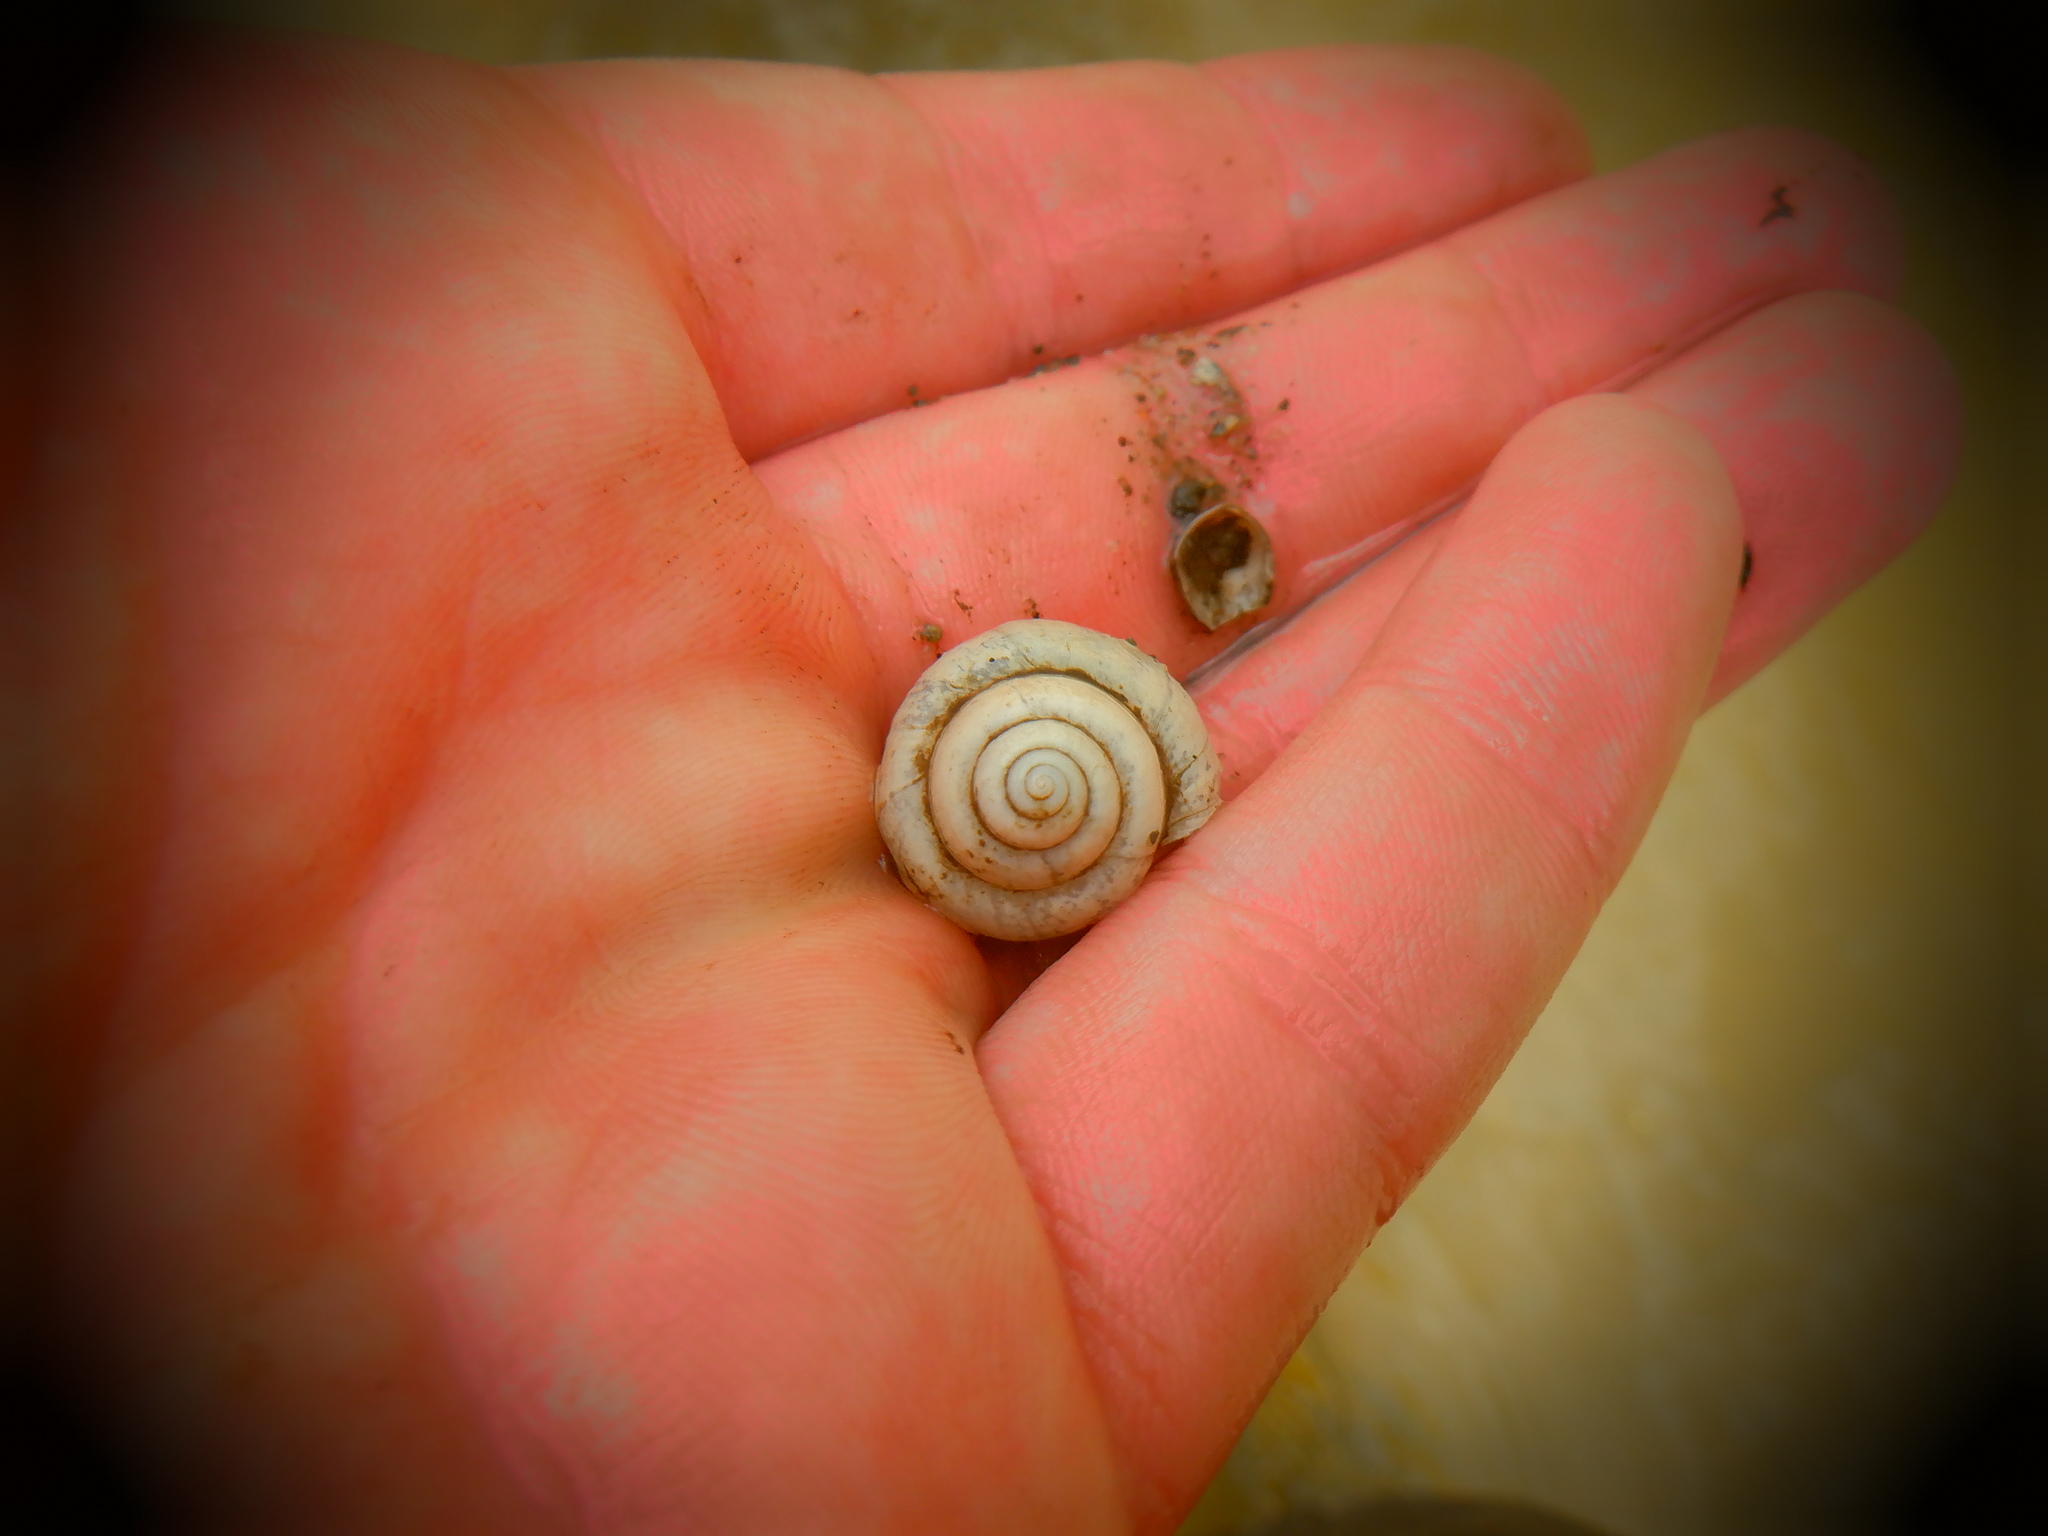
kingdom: Animalia
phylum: Mollusca
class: Gastropoda
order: Architaenioglossa
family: Viviparidae
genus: Campeloma
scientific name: Campeloma decisum
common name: Pointed campeloma
